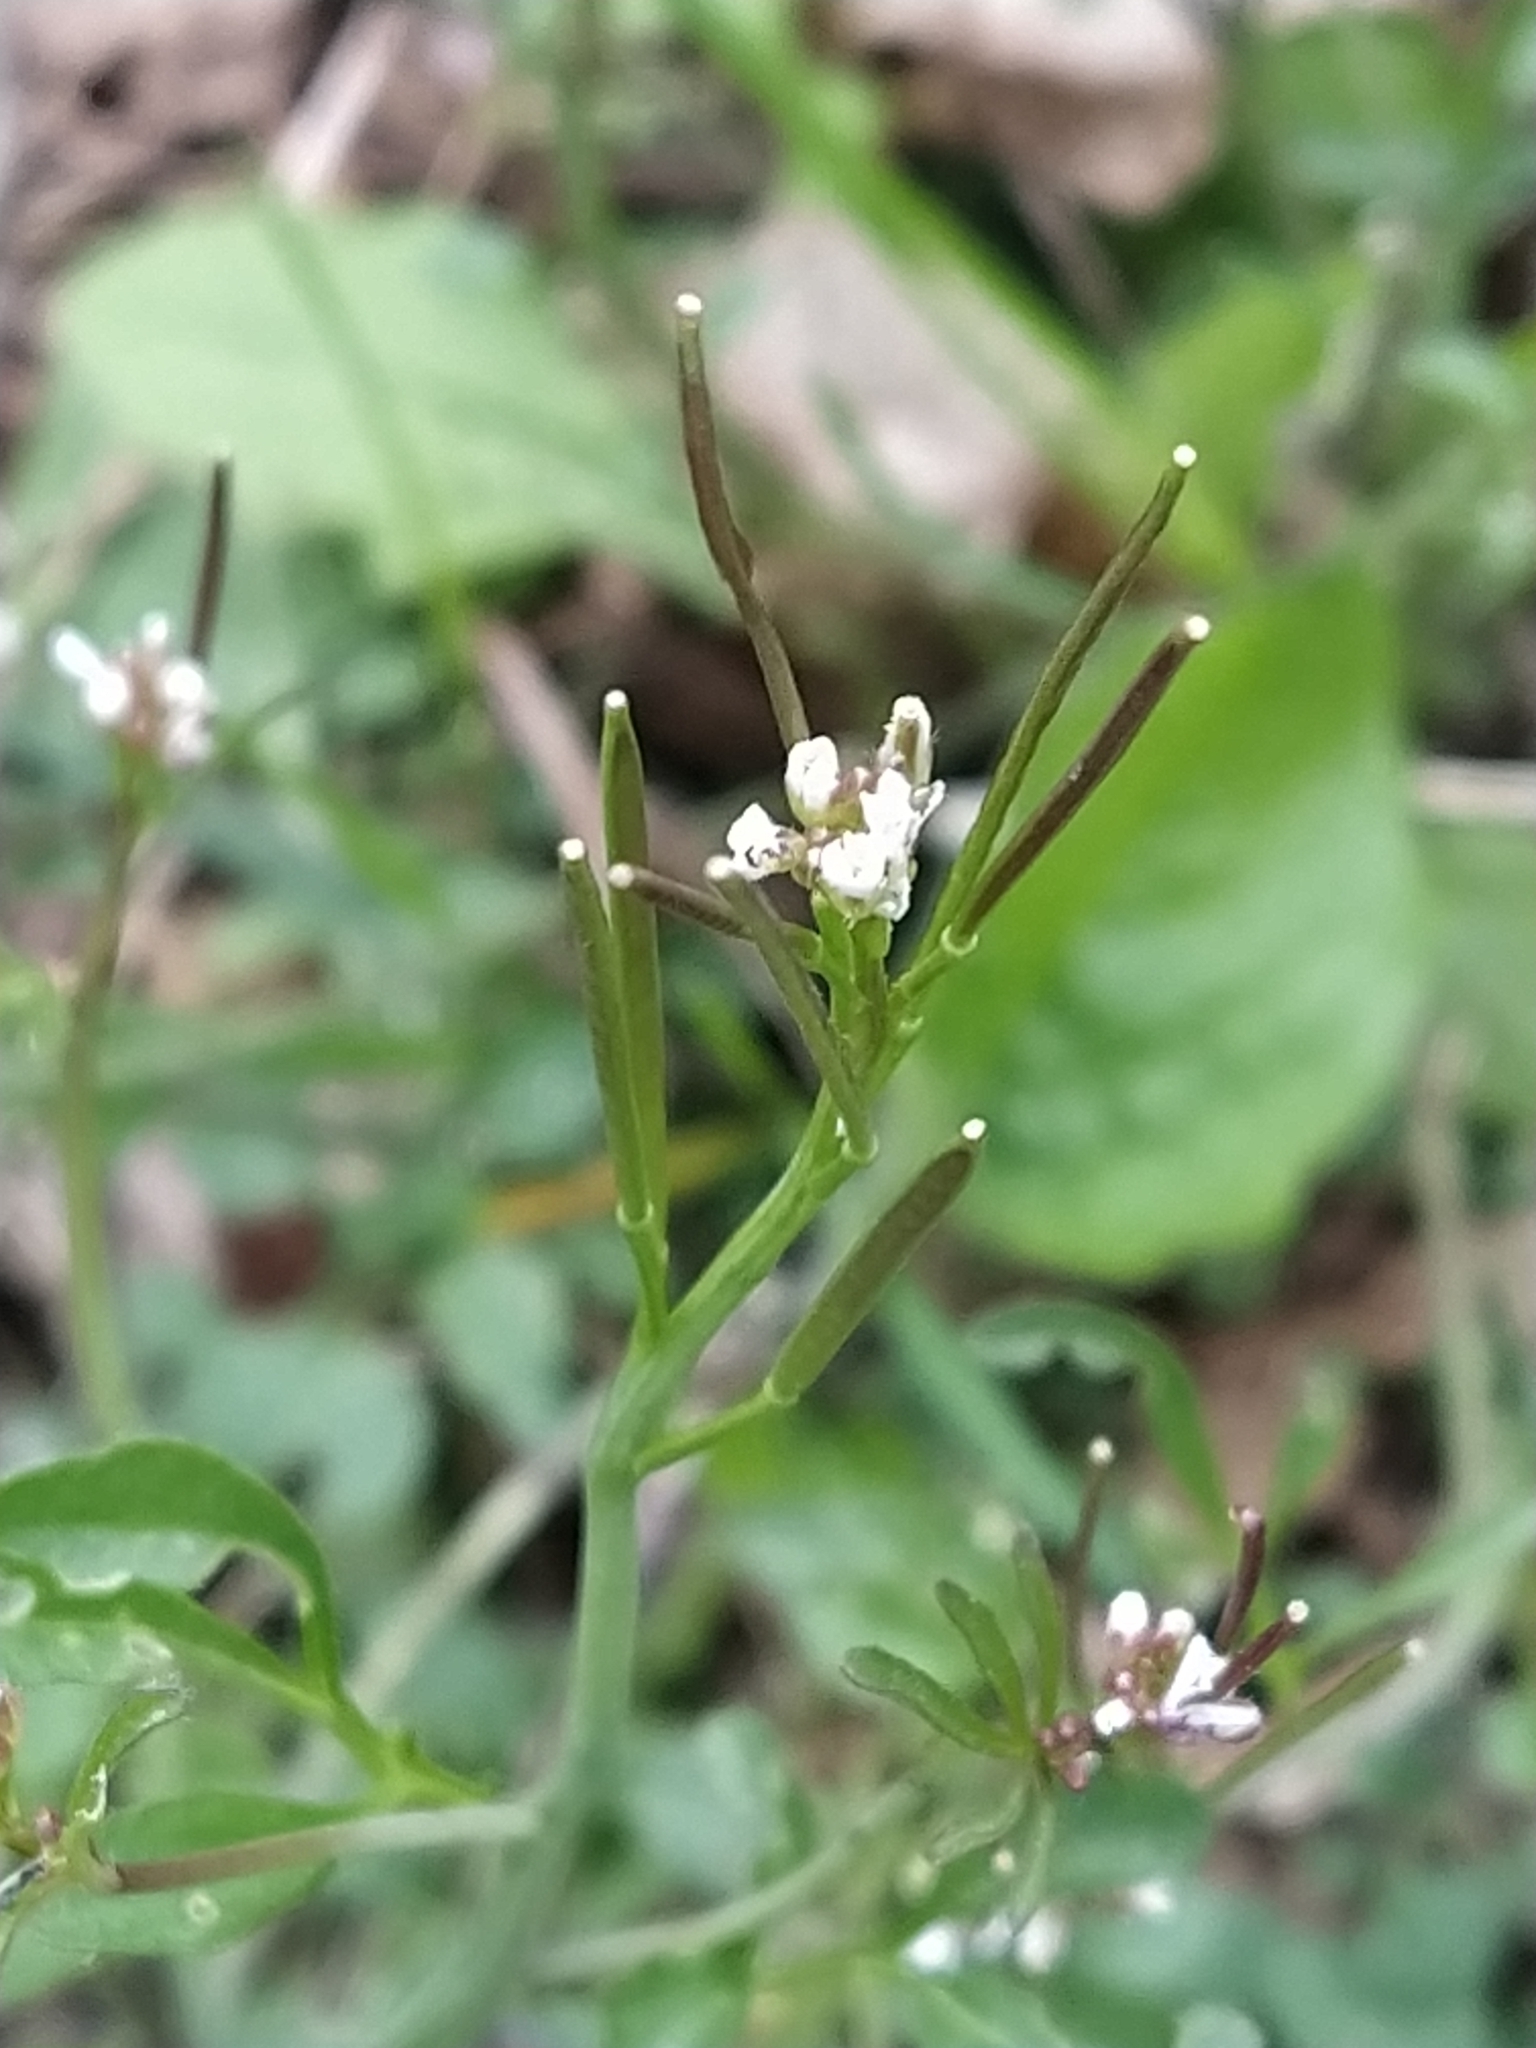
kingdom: Plantae
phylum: Tracheophyta
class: Magnoliopsida
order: Brassicales
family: Brassicaceae
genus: Cardamine
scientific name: Cardamine hirsuta
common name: Hairy bittercress
